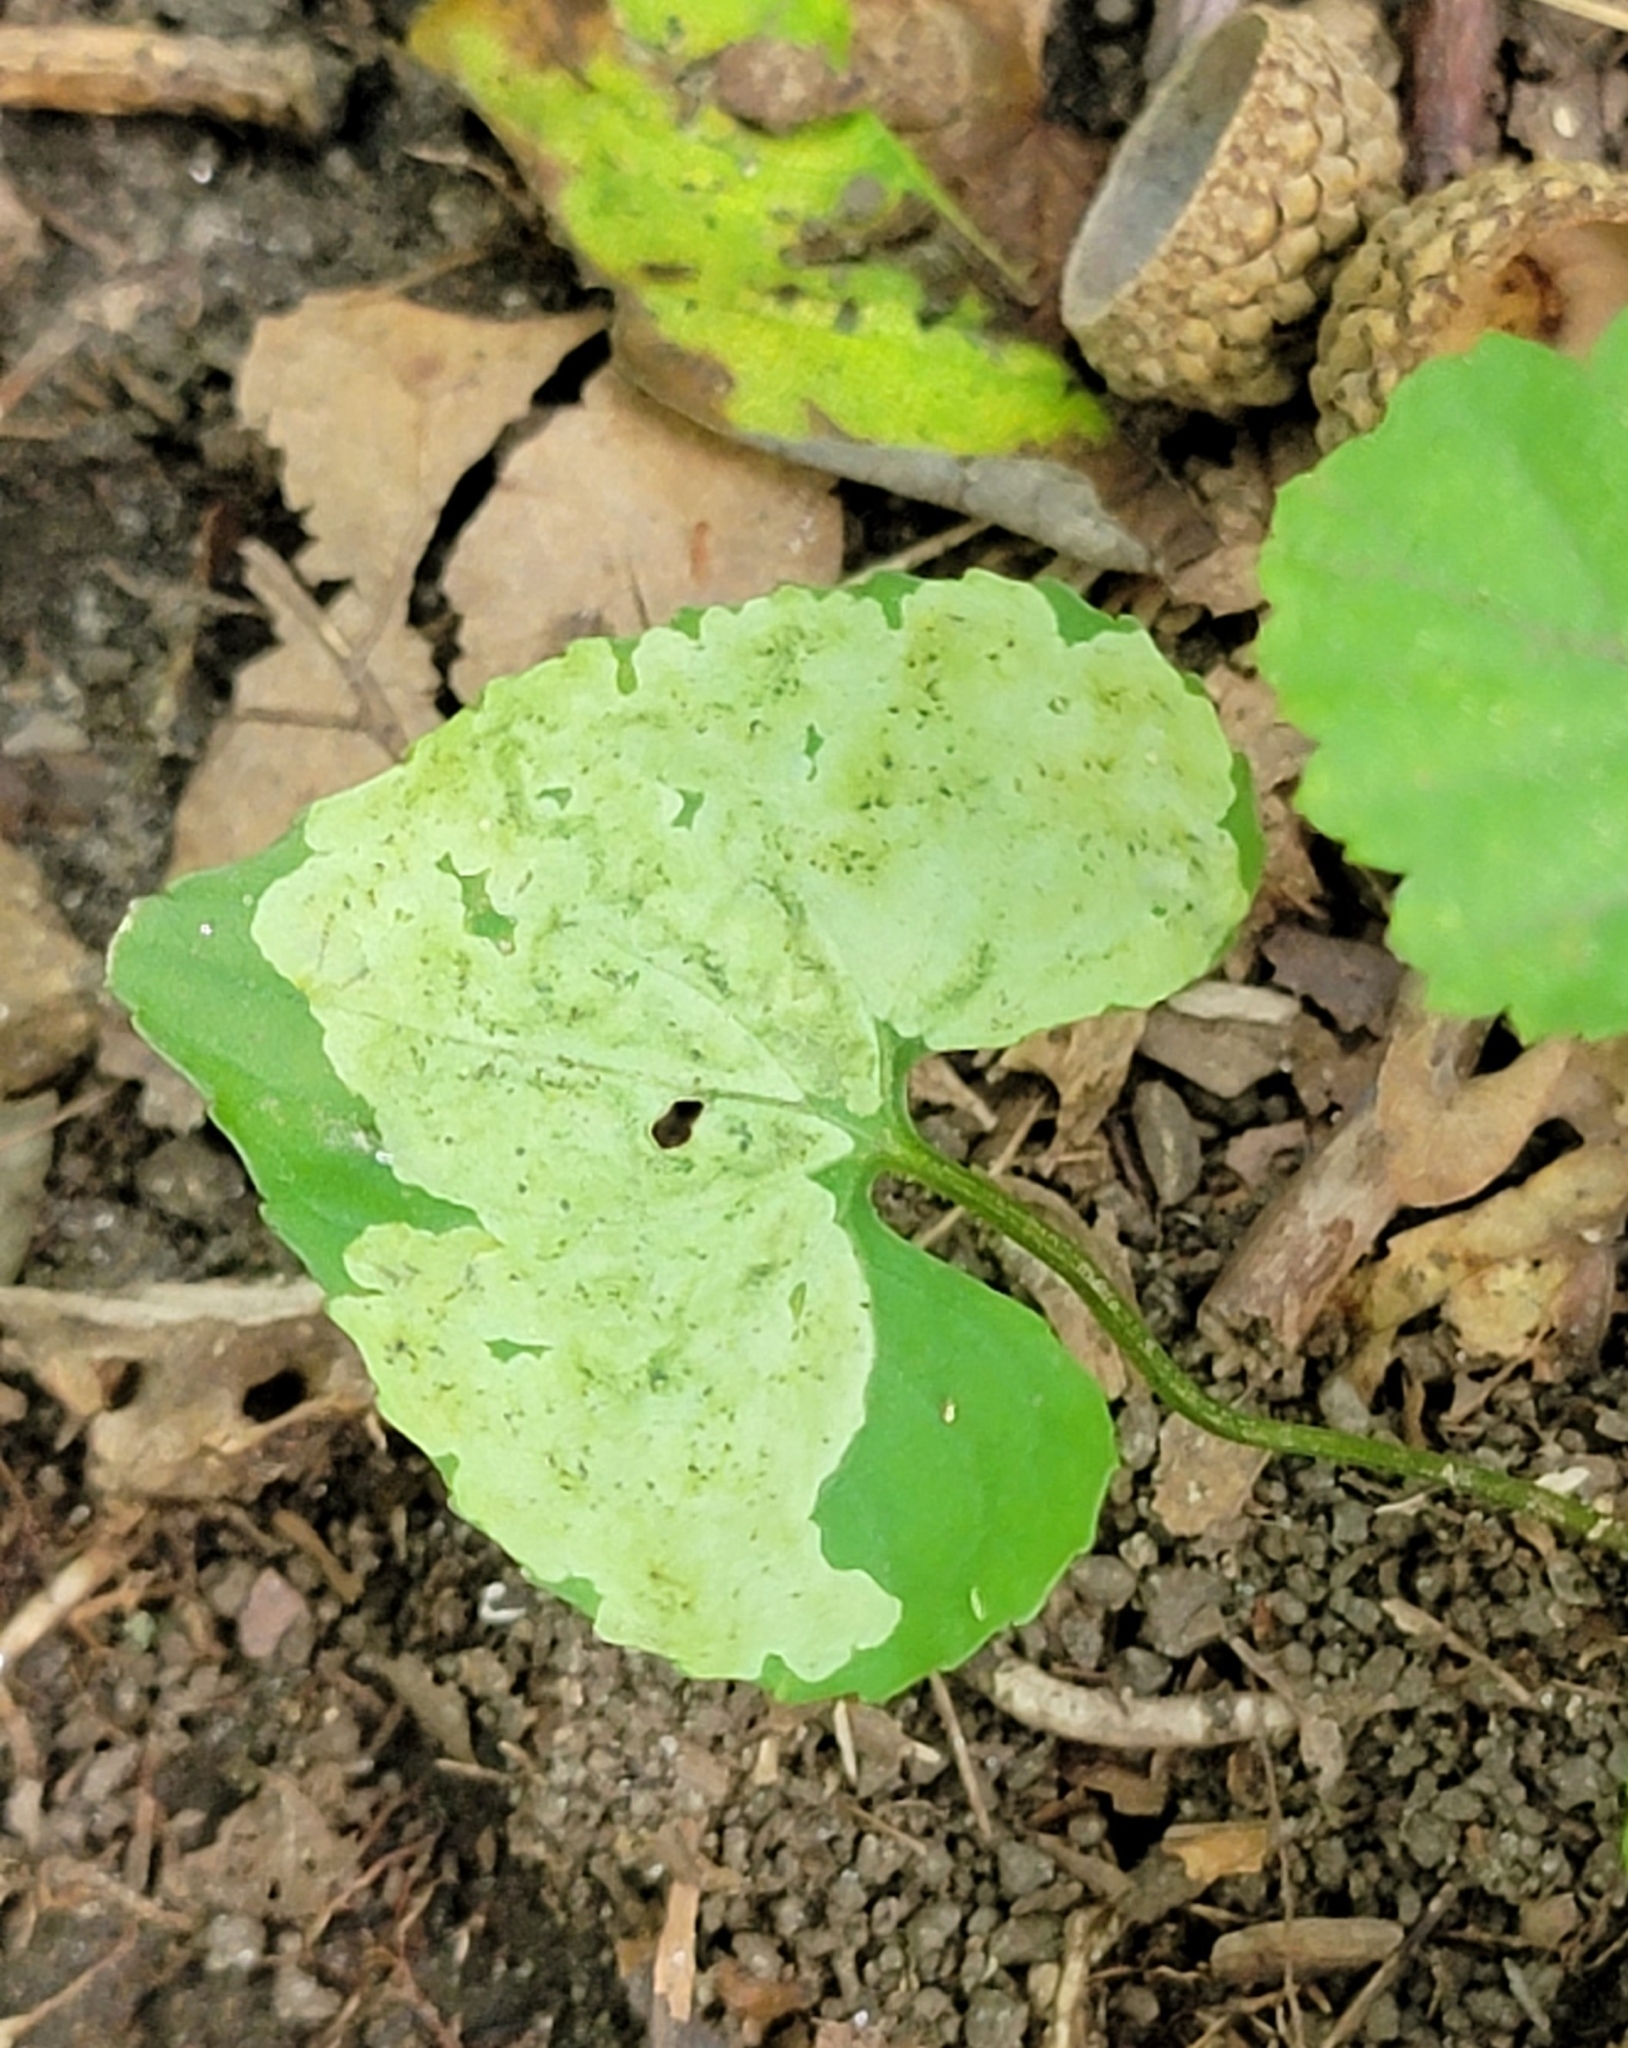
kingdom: Animalia
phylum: Arthropoda
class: Insecta
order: Diptera
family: Agromyzidae
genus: Liriomyza
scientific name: Liriomyza violivora
